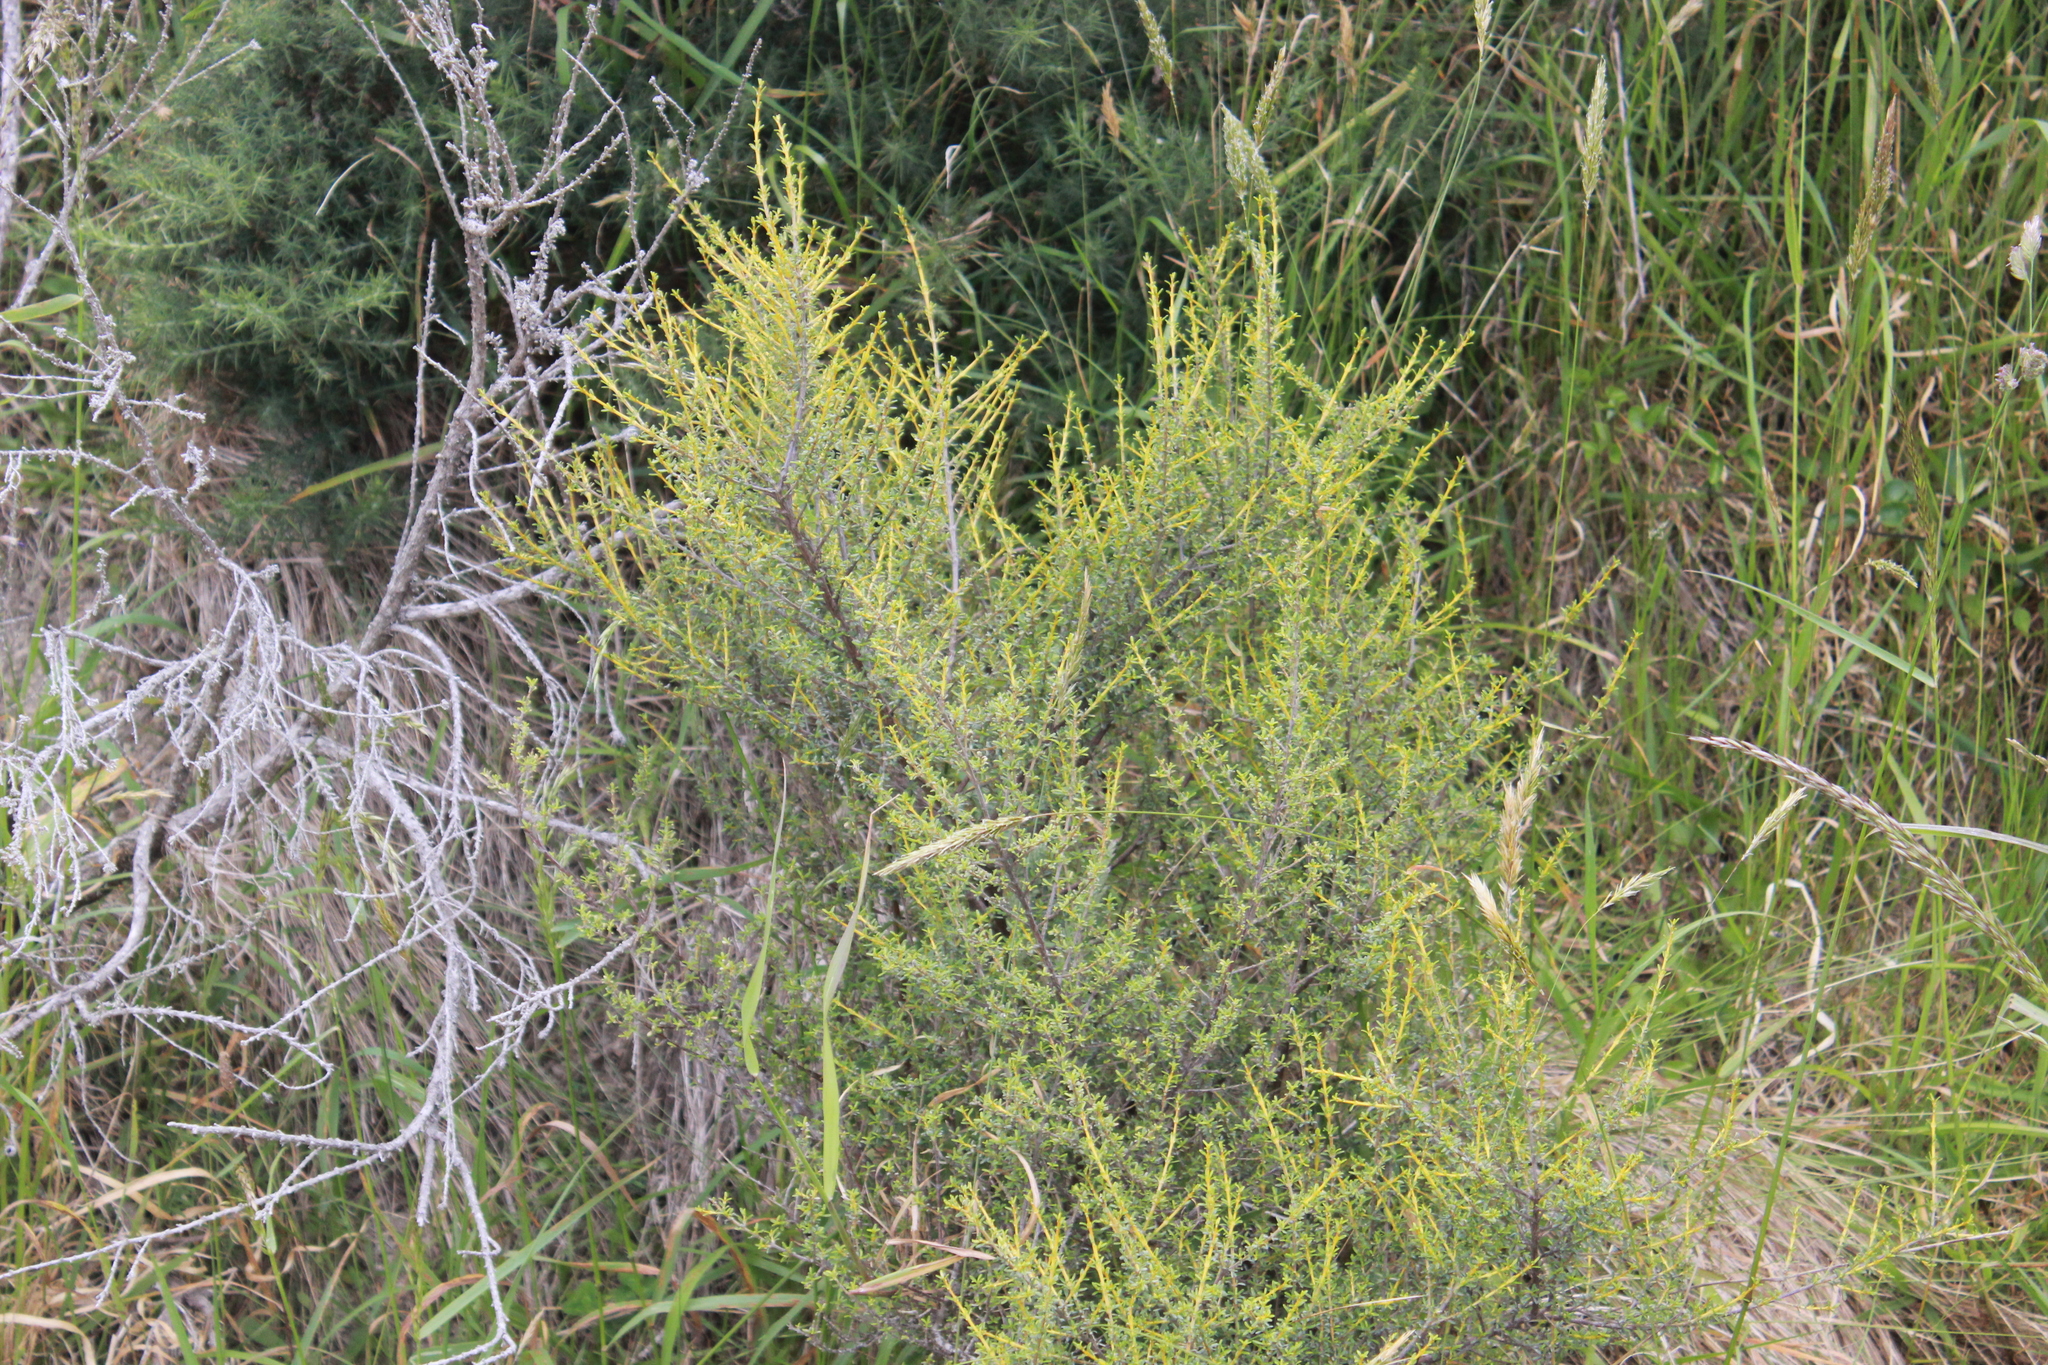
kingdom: Plantae
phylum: Tracheophyta
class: Magnoliopsida
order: Asterales
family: Asteraceae
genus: Olearia
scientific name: Olearia solandri
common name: Coastal daisybush
